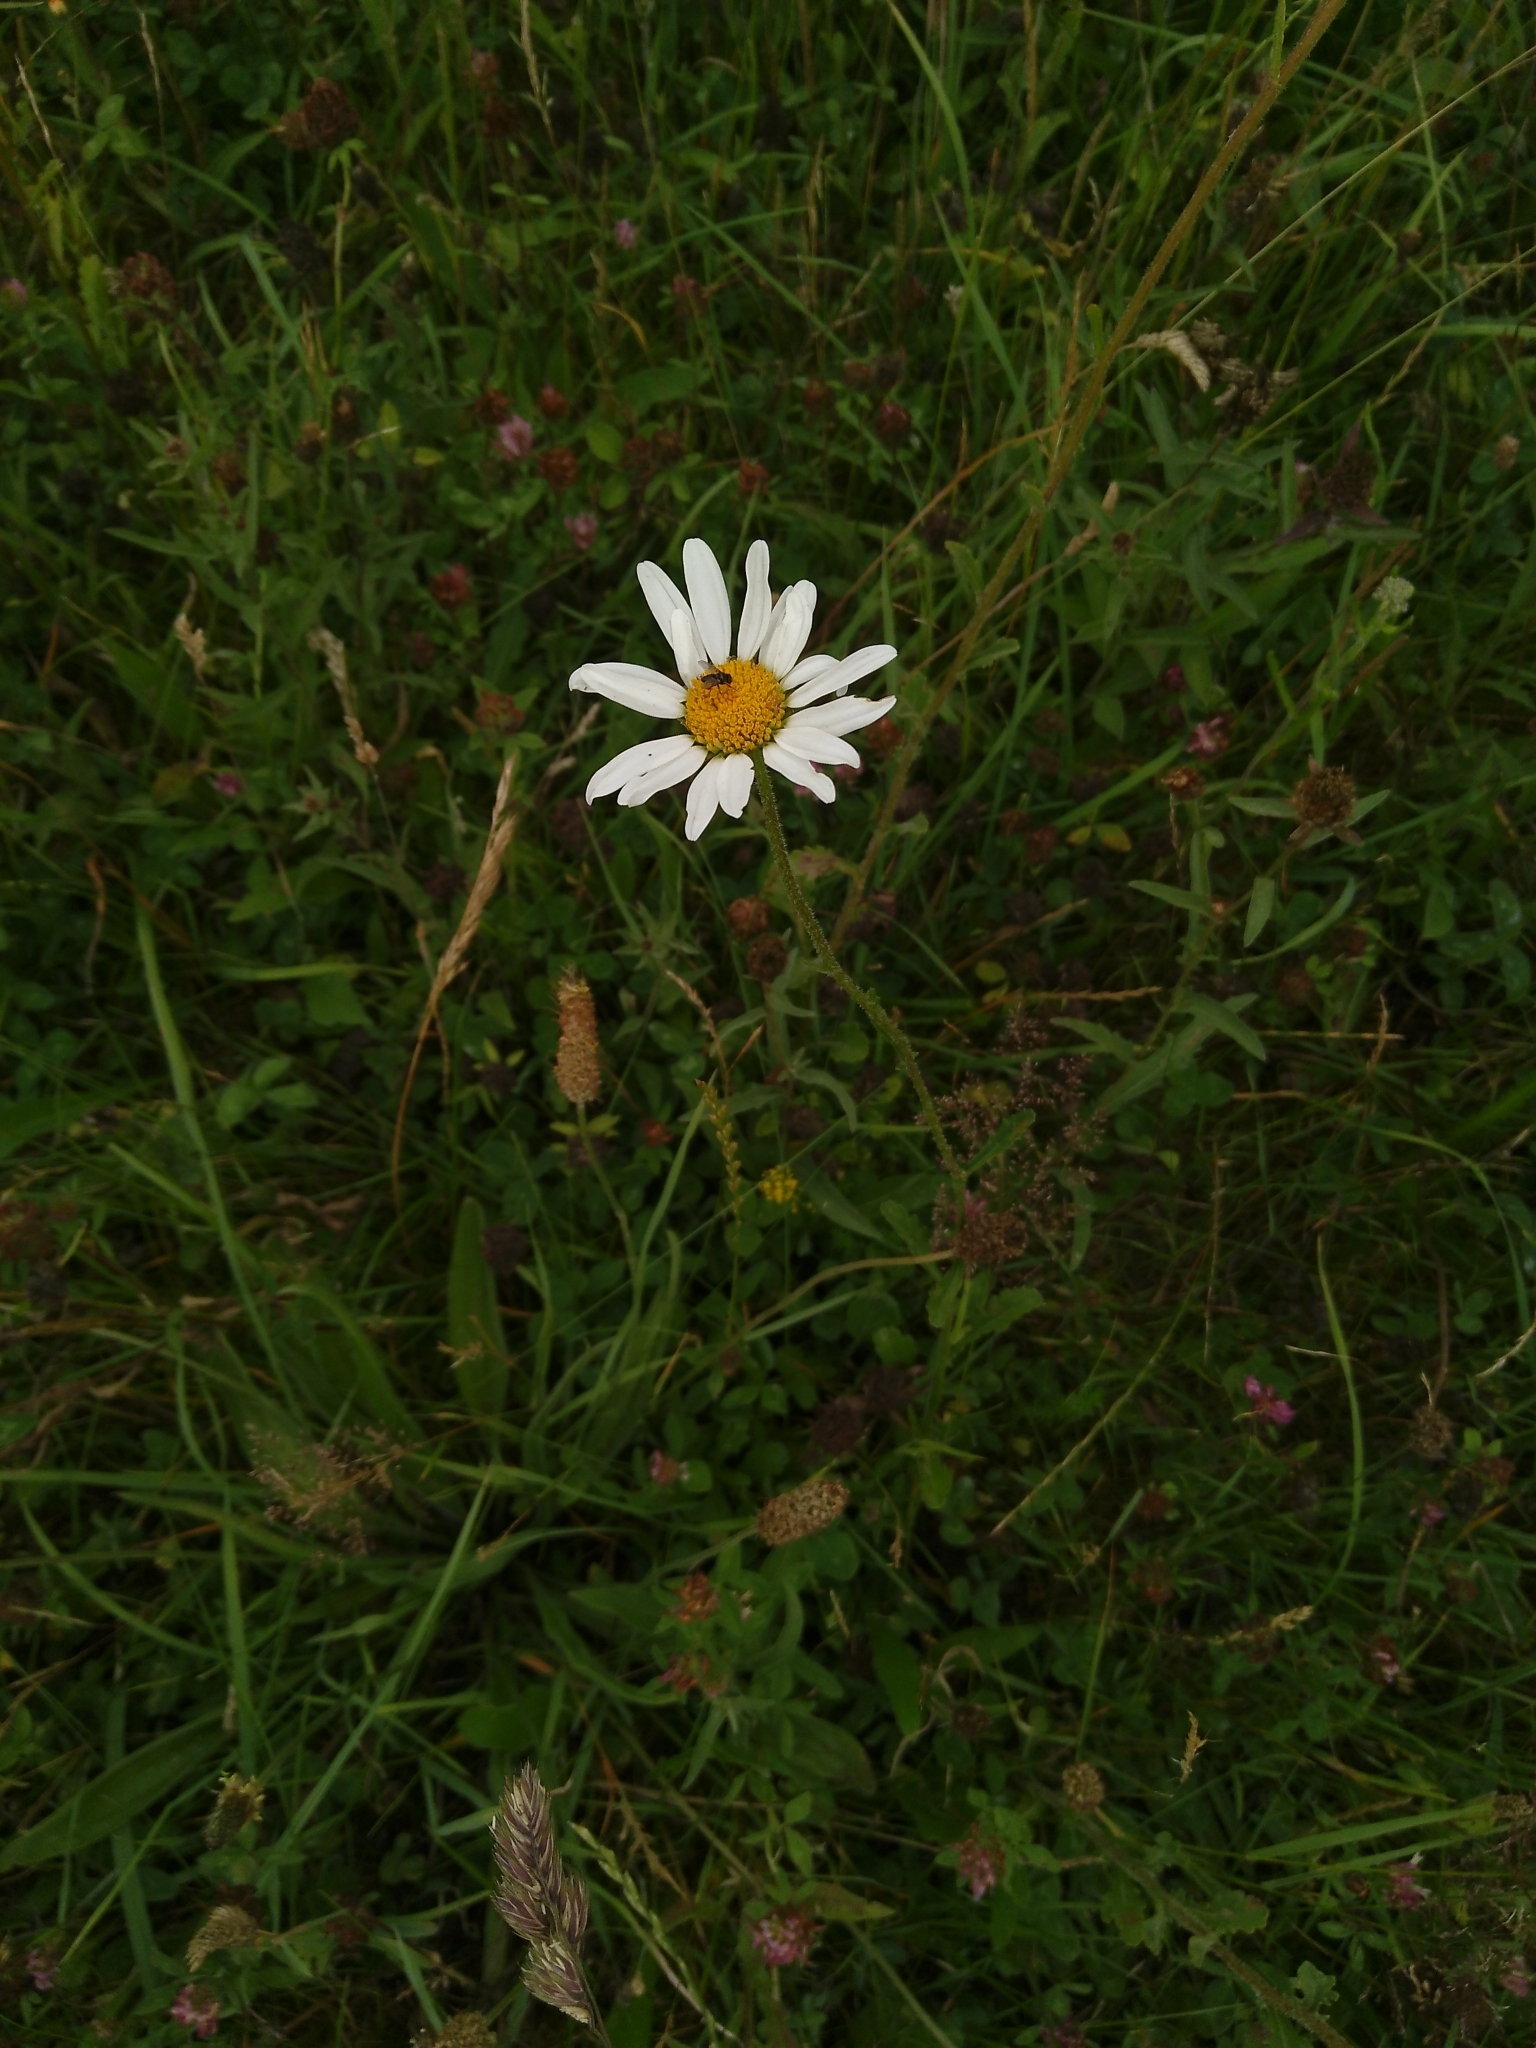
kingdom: Plantae
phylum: Tracheophyta
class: Magnoliopsida
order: Asterales
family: Asteraceae
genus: Leucanthemum
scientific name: Leucanthemum vulgare
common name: Oxeye daisy
